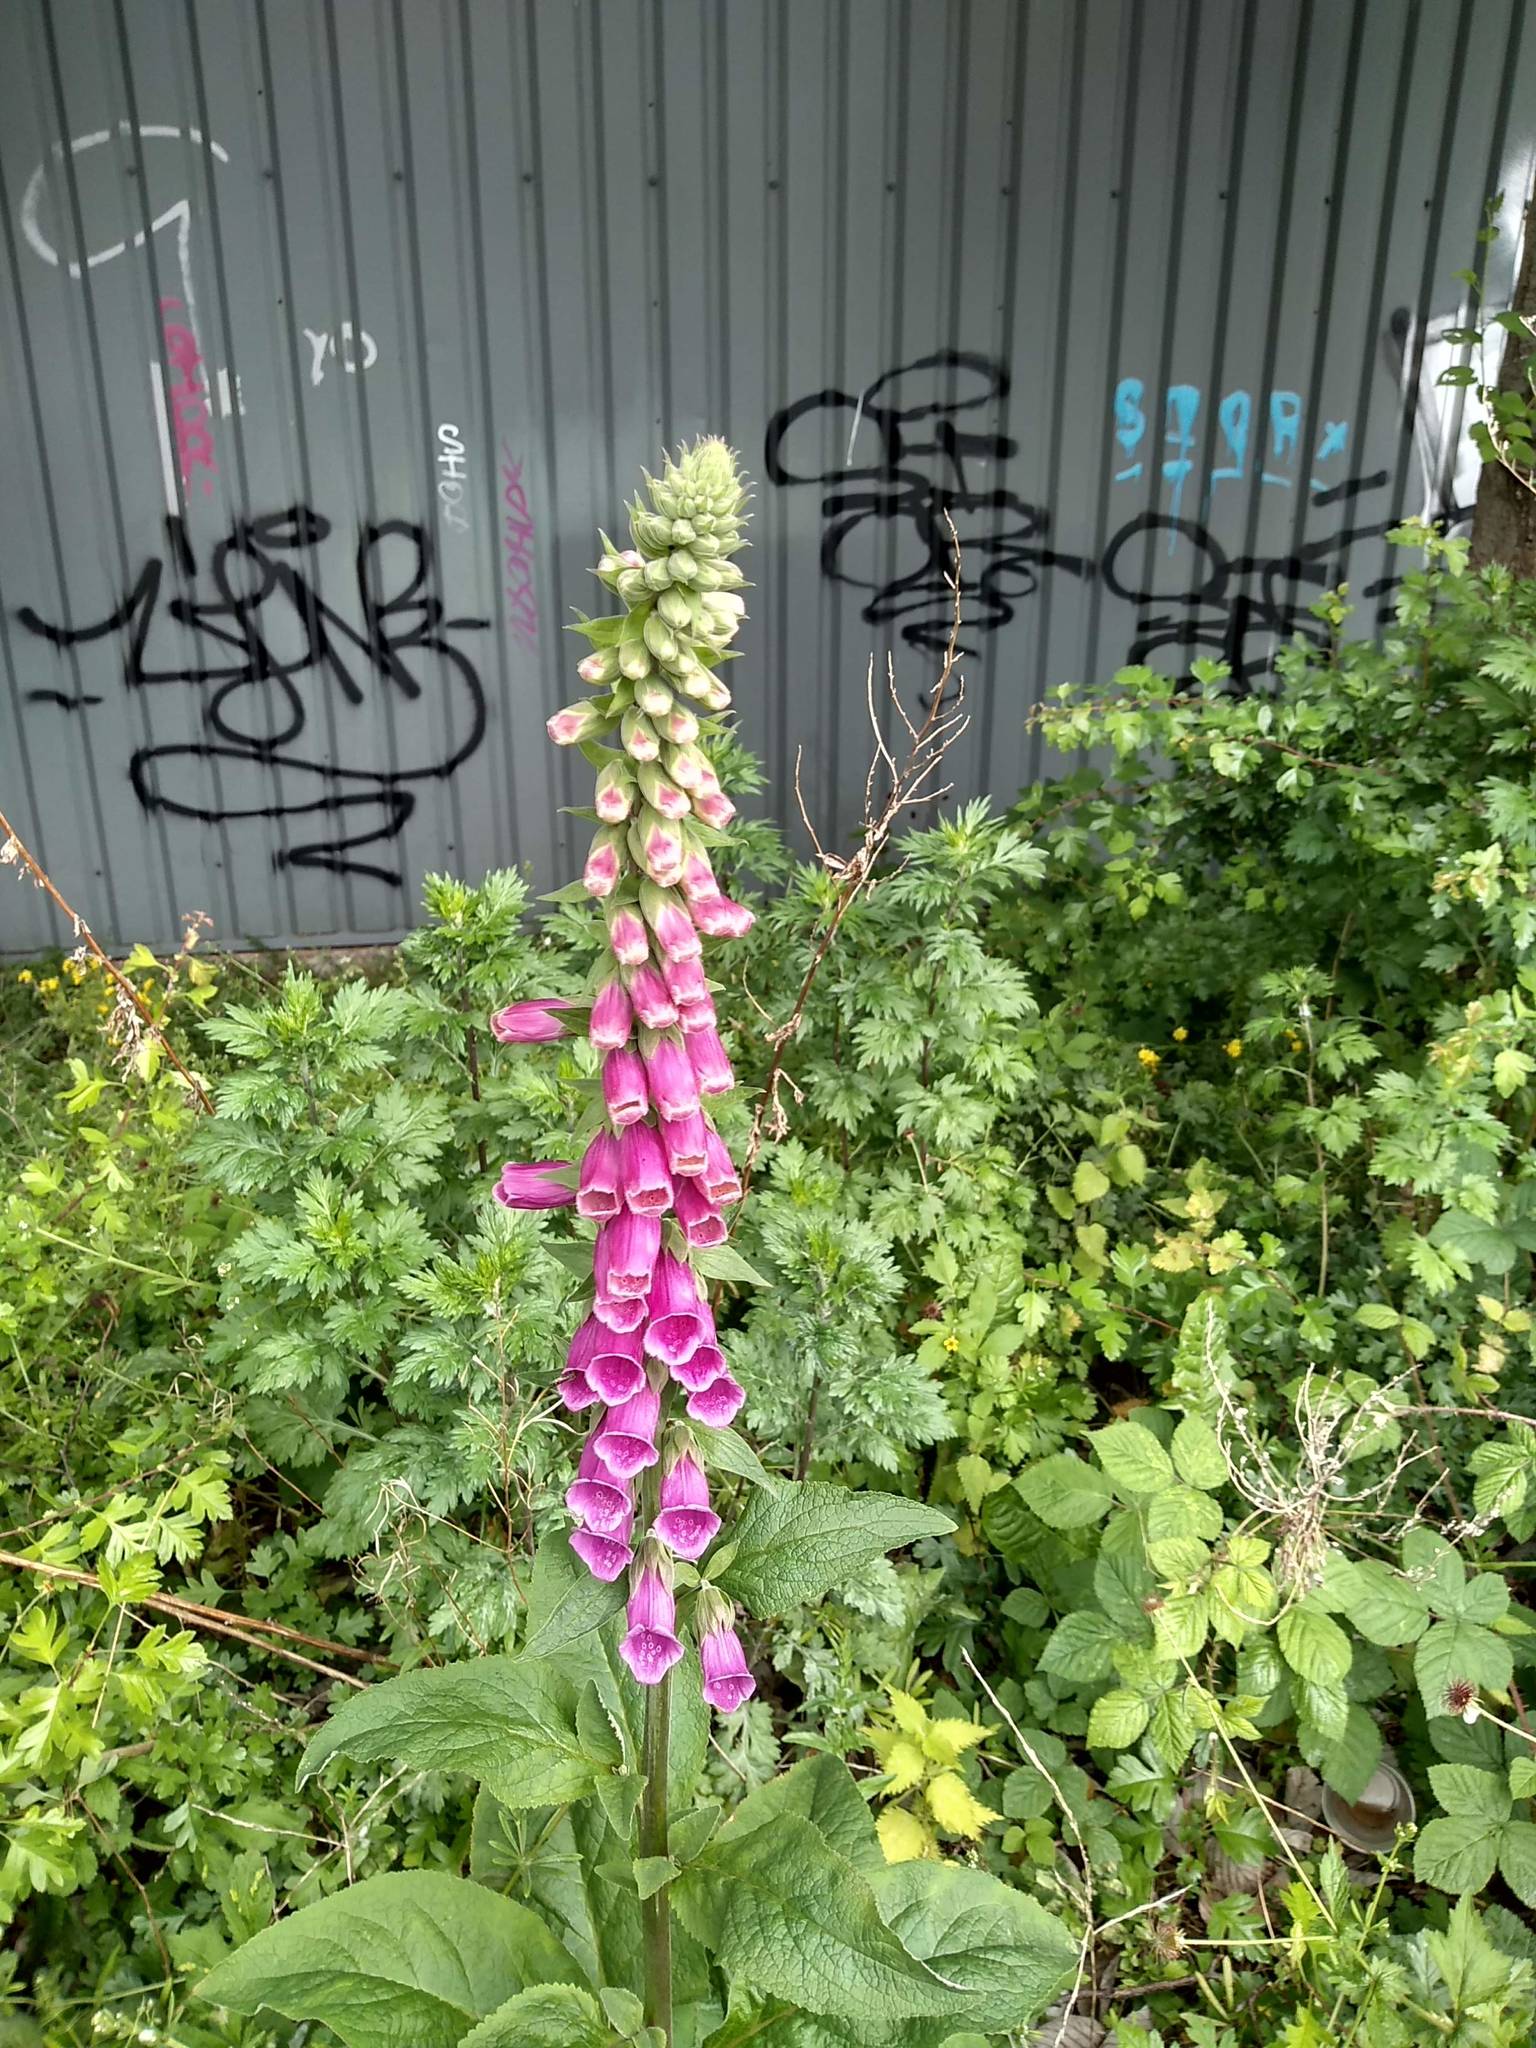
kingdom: Plantae
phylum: Tracheophyta
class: Magnoliopsida
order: Lamiales
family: Plantaginaceae
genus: Digitalis
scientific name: Digitalis purpurea
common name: Foxglove
